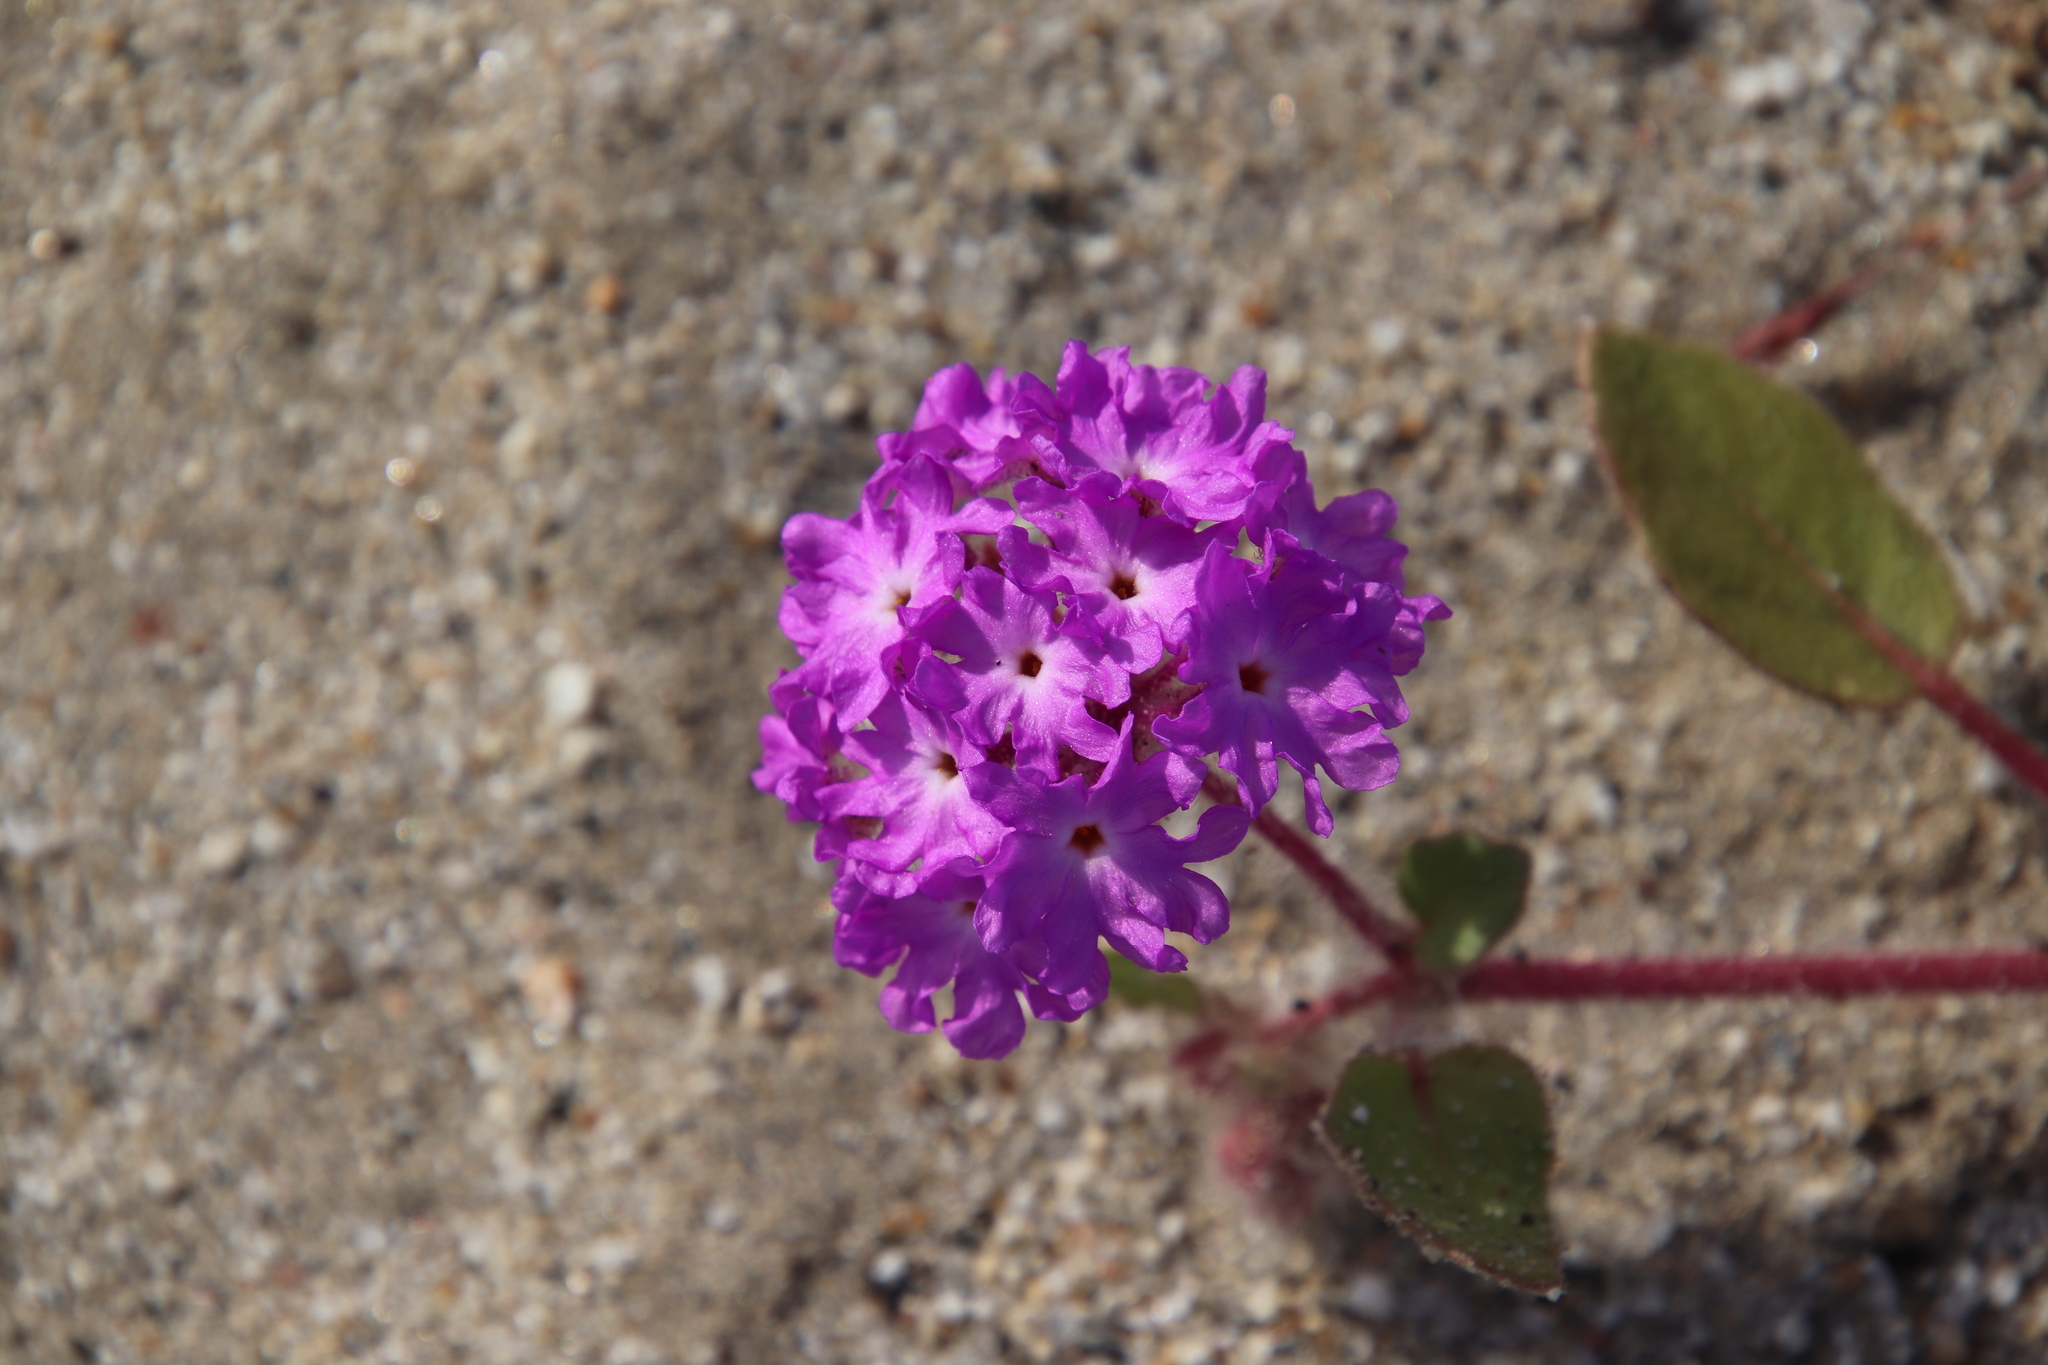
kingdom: Plantae
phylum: Tracheophyta
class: Magnoliopsida
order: Caryophyllales
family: Nyctaginaceae
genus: Abronia
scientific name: Abronia villosa
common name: Desert sand-verbena
